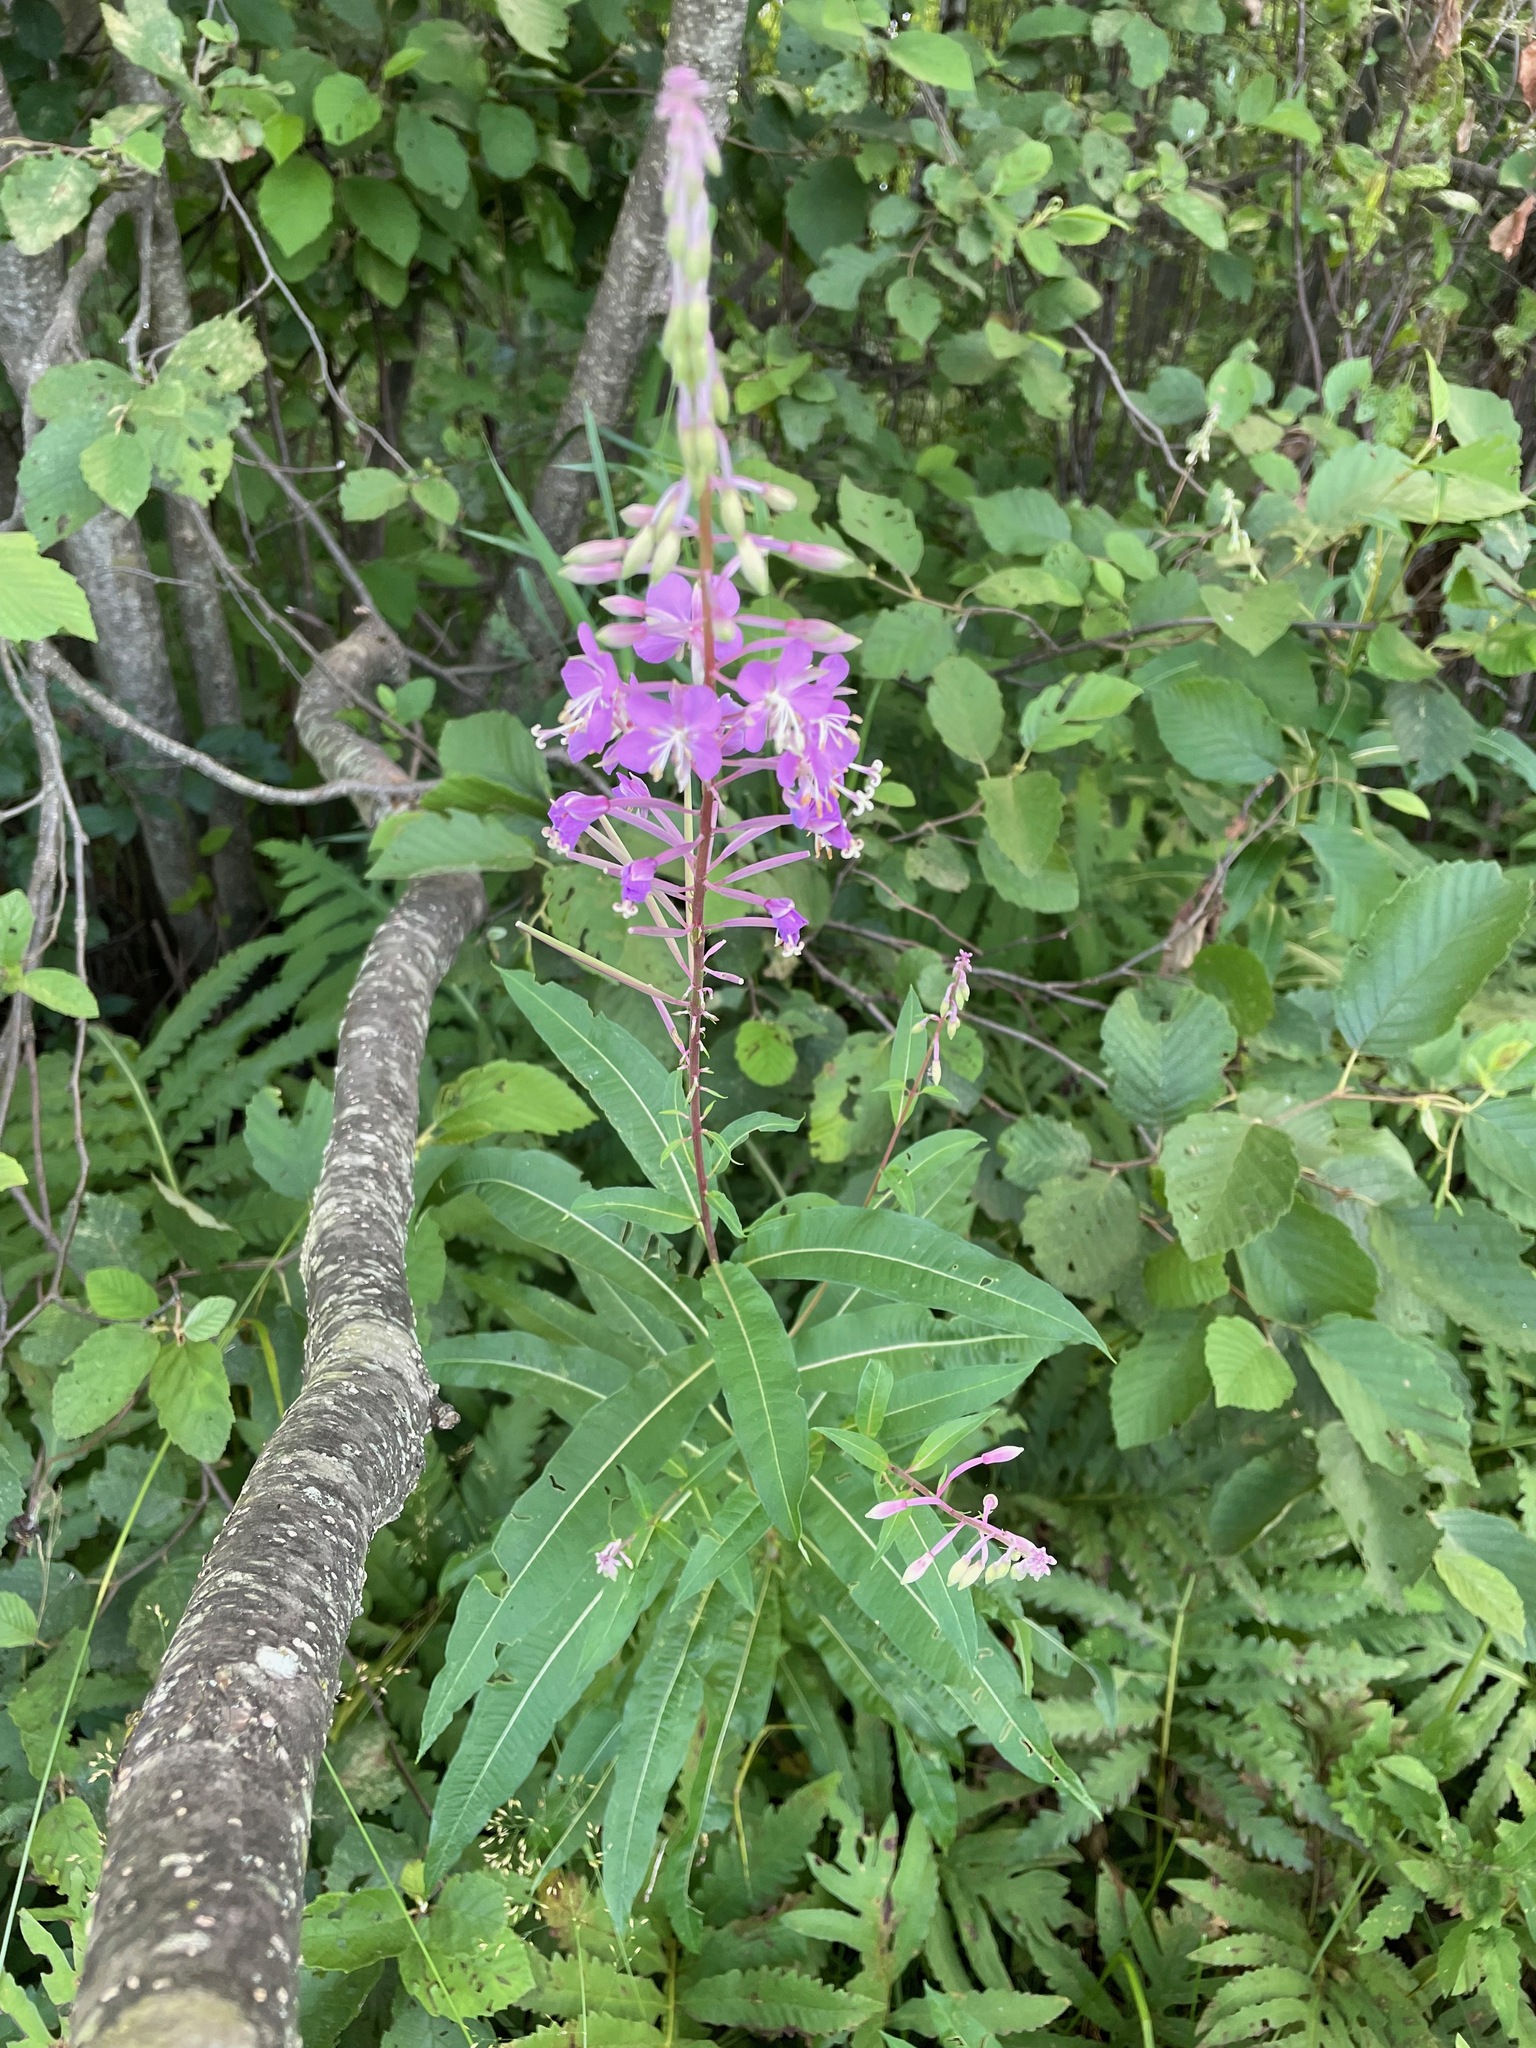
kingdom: Plantae
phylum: Tracheophyta
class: Magnoliopsida
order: Myrtales
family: Onagraceae
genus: Chamaenerion
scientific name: Chamaenerion angustifolium
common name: Fireweed
